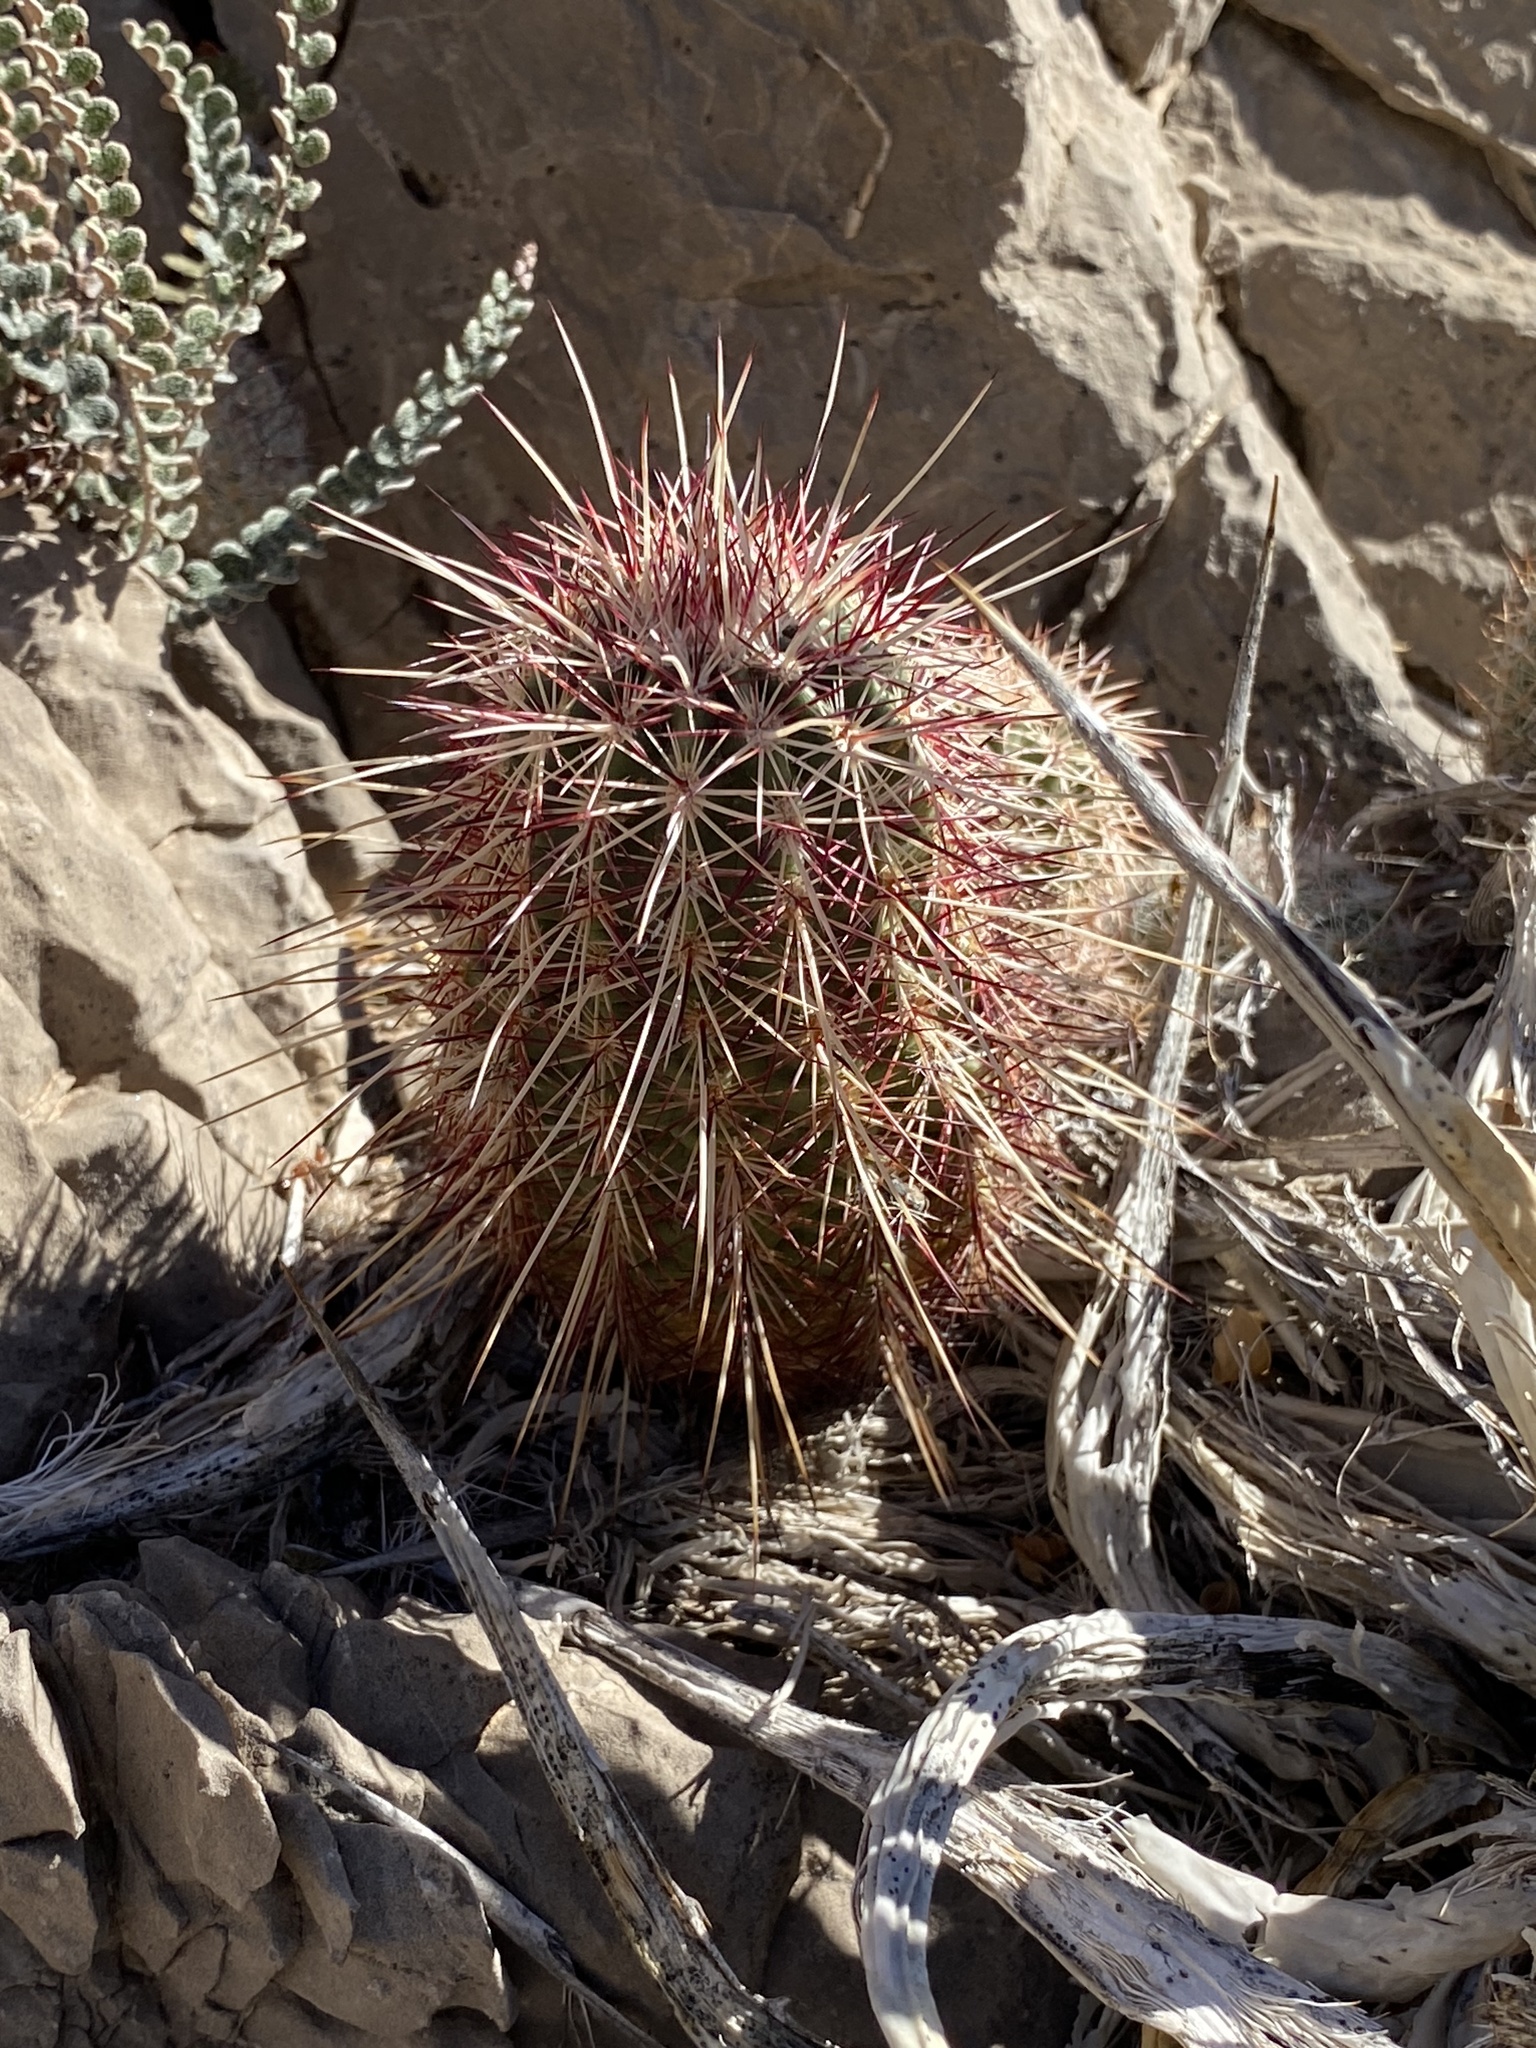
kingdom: Plantae
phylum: Tracheophyta
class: Magnoliopsida
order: Caryophyllales
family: Cactaceae
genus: Echinocereus
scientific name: Echinocereus viridiflorus
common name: Nylon hedgehog cactus
